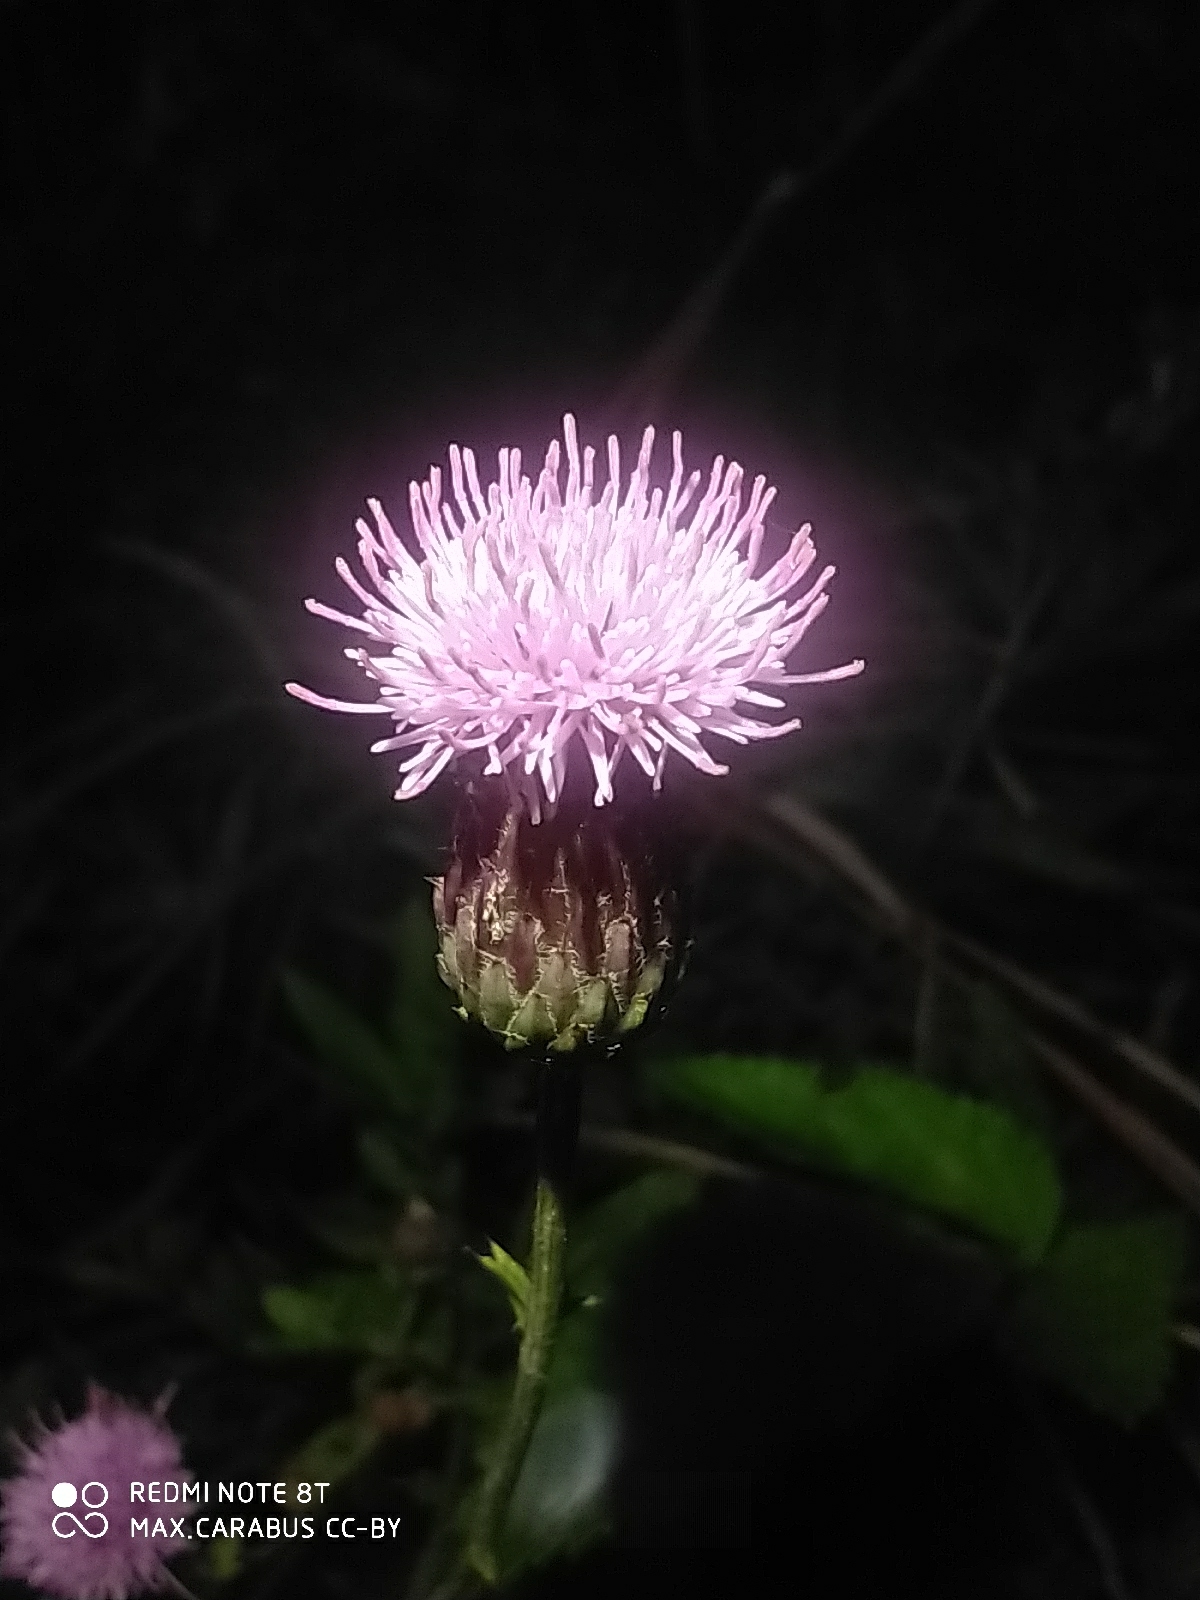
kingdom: Plantae
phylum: Tracheophyta
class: Magnoliopsida
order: Asterales
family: Asteraceae
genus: Cirsium
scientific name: Cirsium arvense
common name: Creeping thistle
